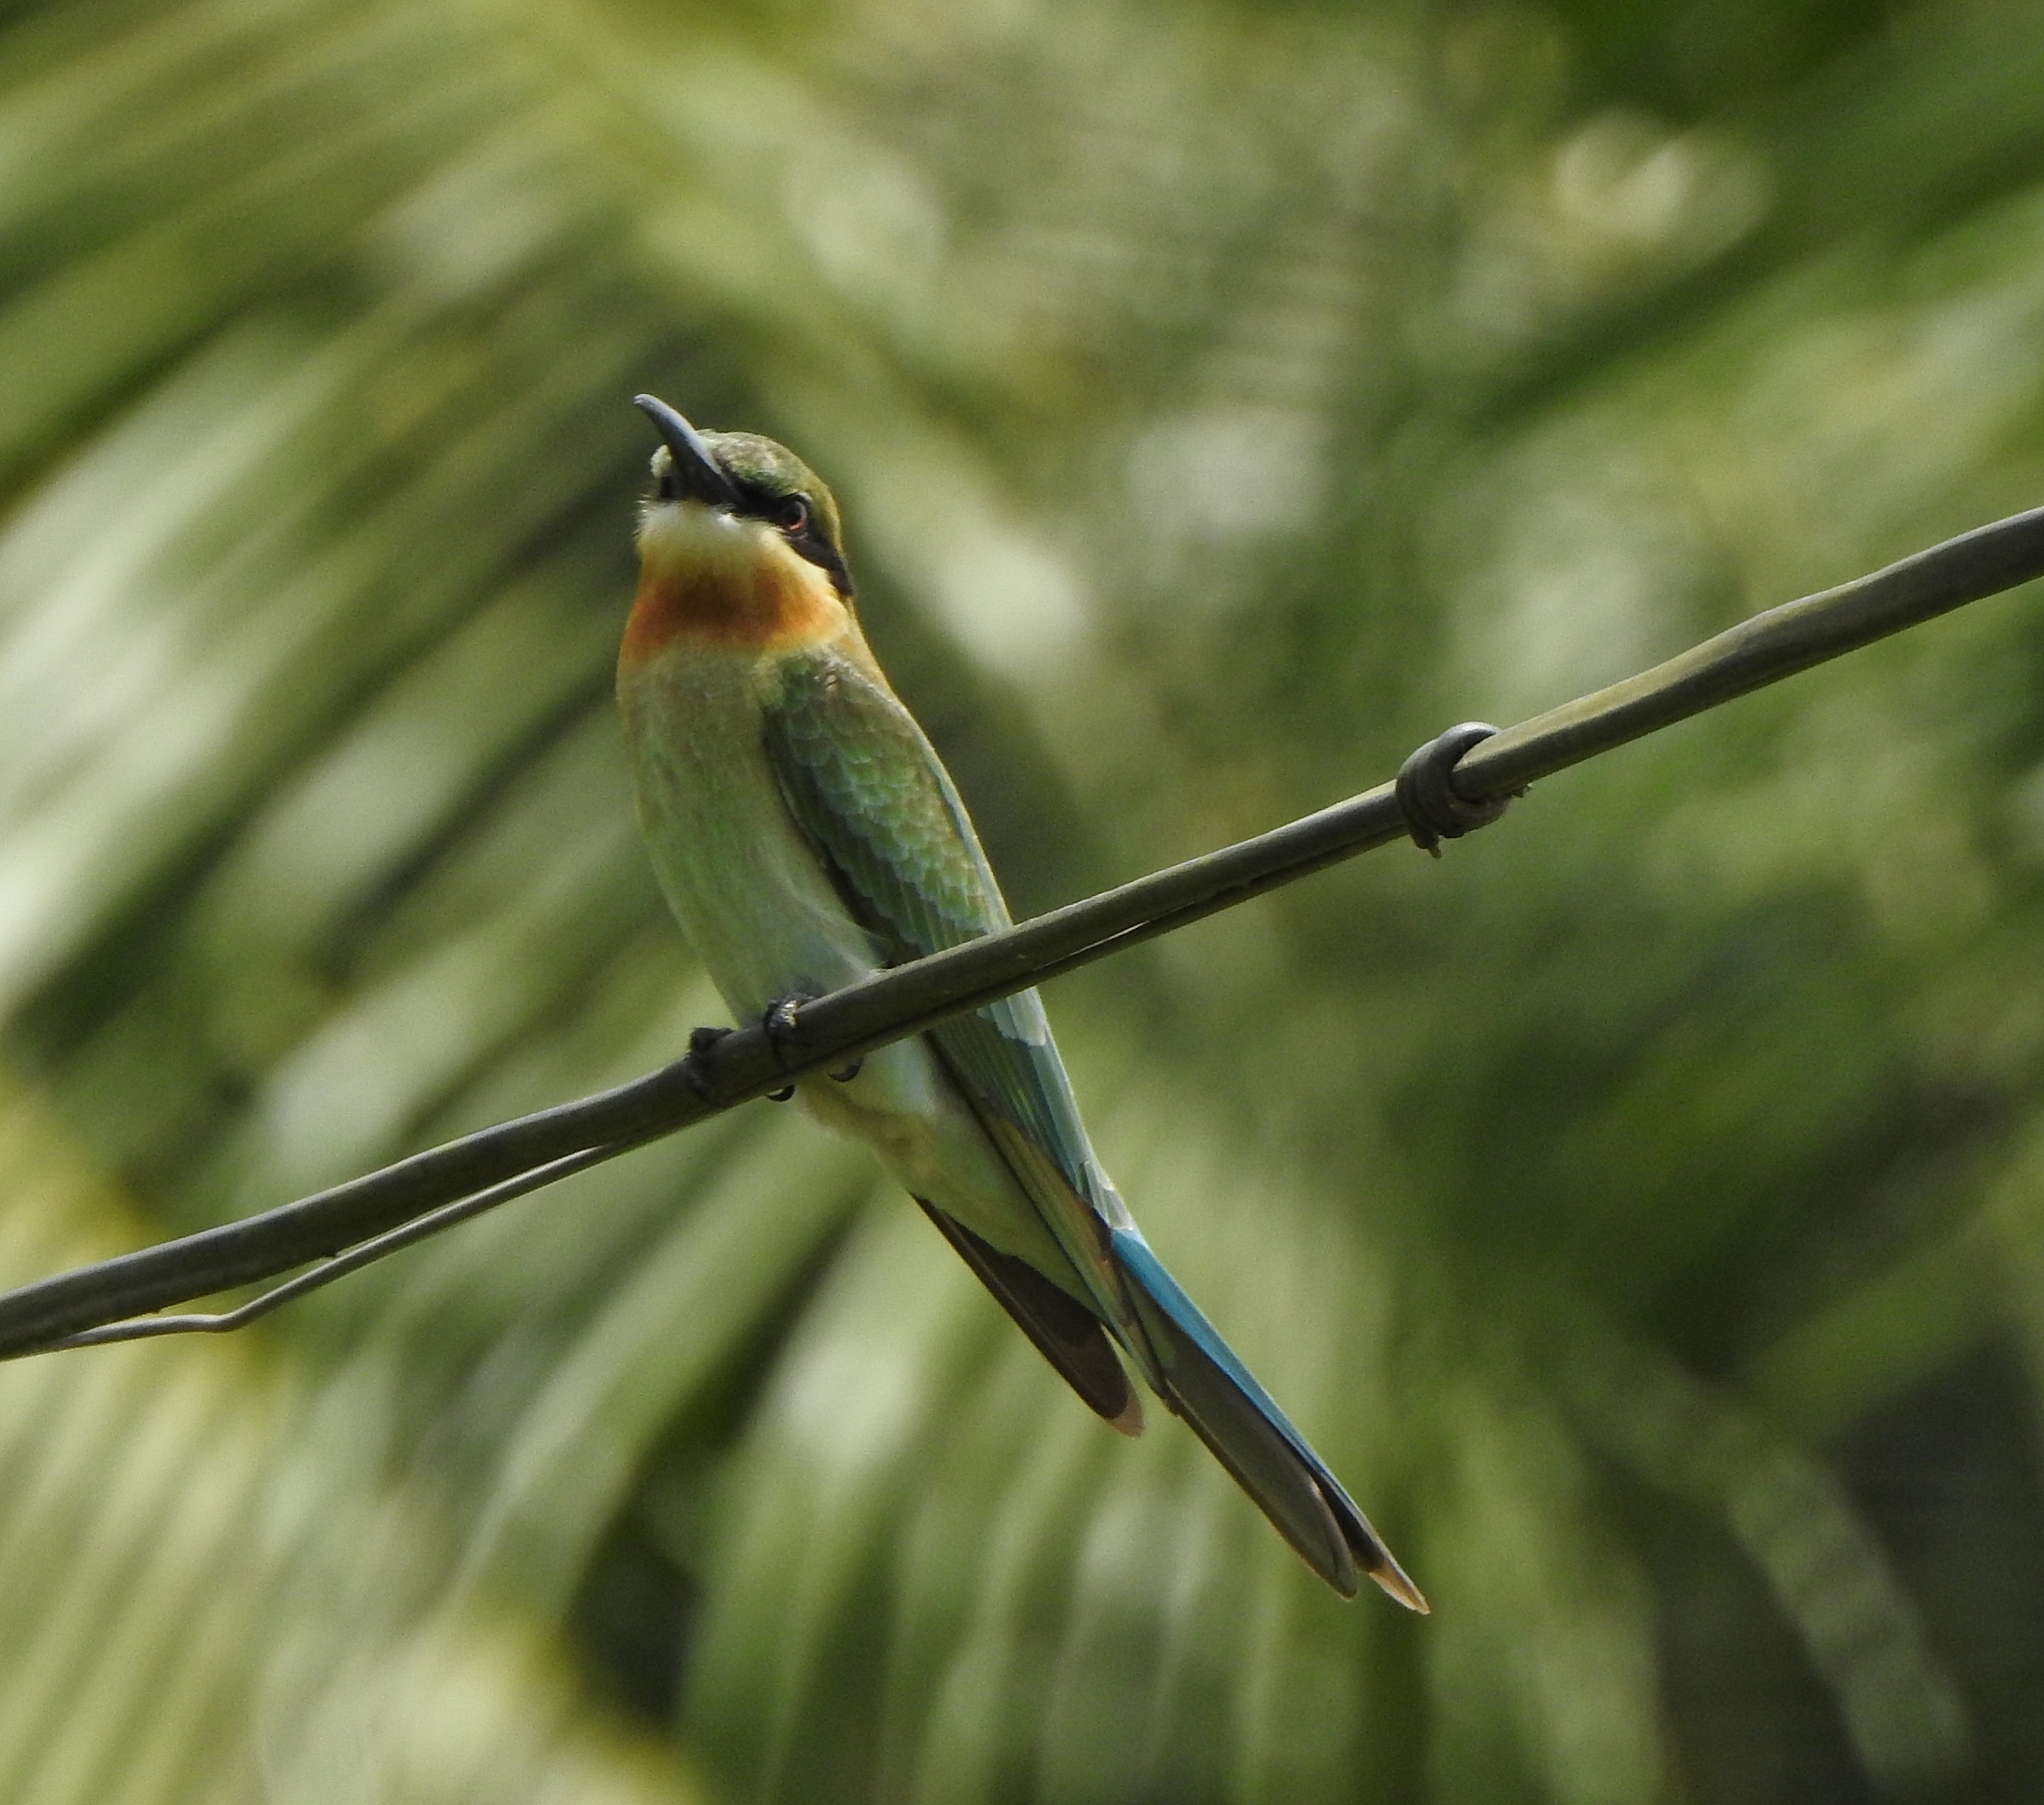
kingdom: Animalia
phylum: Chordata
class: Aves
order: Coraciiformes
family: Meropidae
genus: Merops
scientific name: Merops philippinus
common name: Blue-tailed bee-eater
